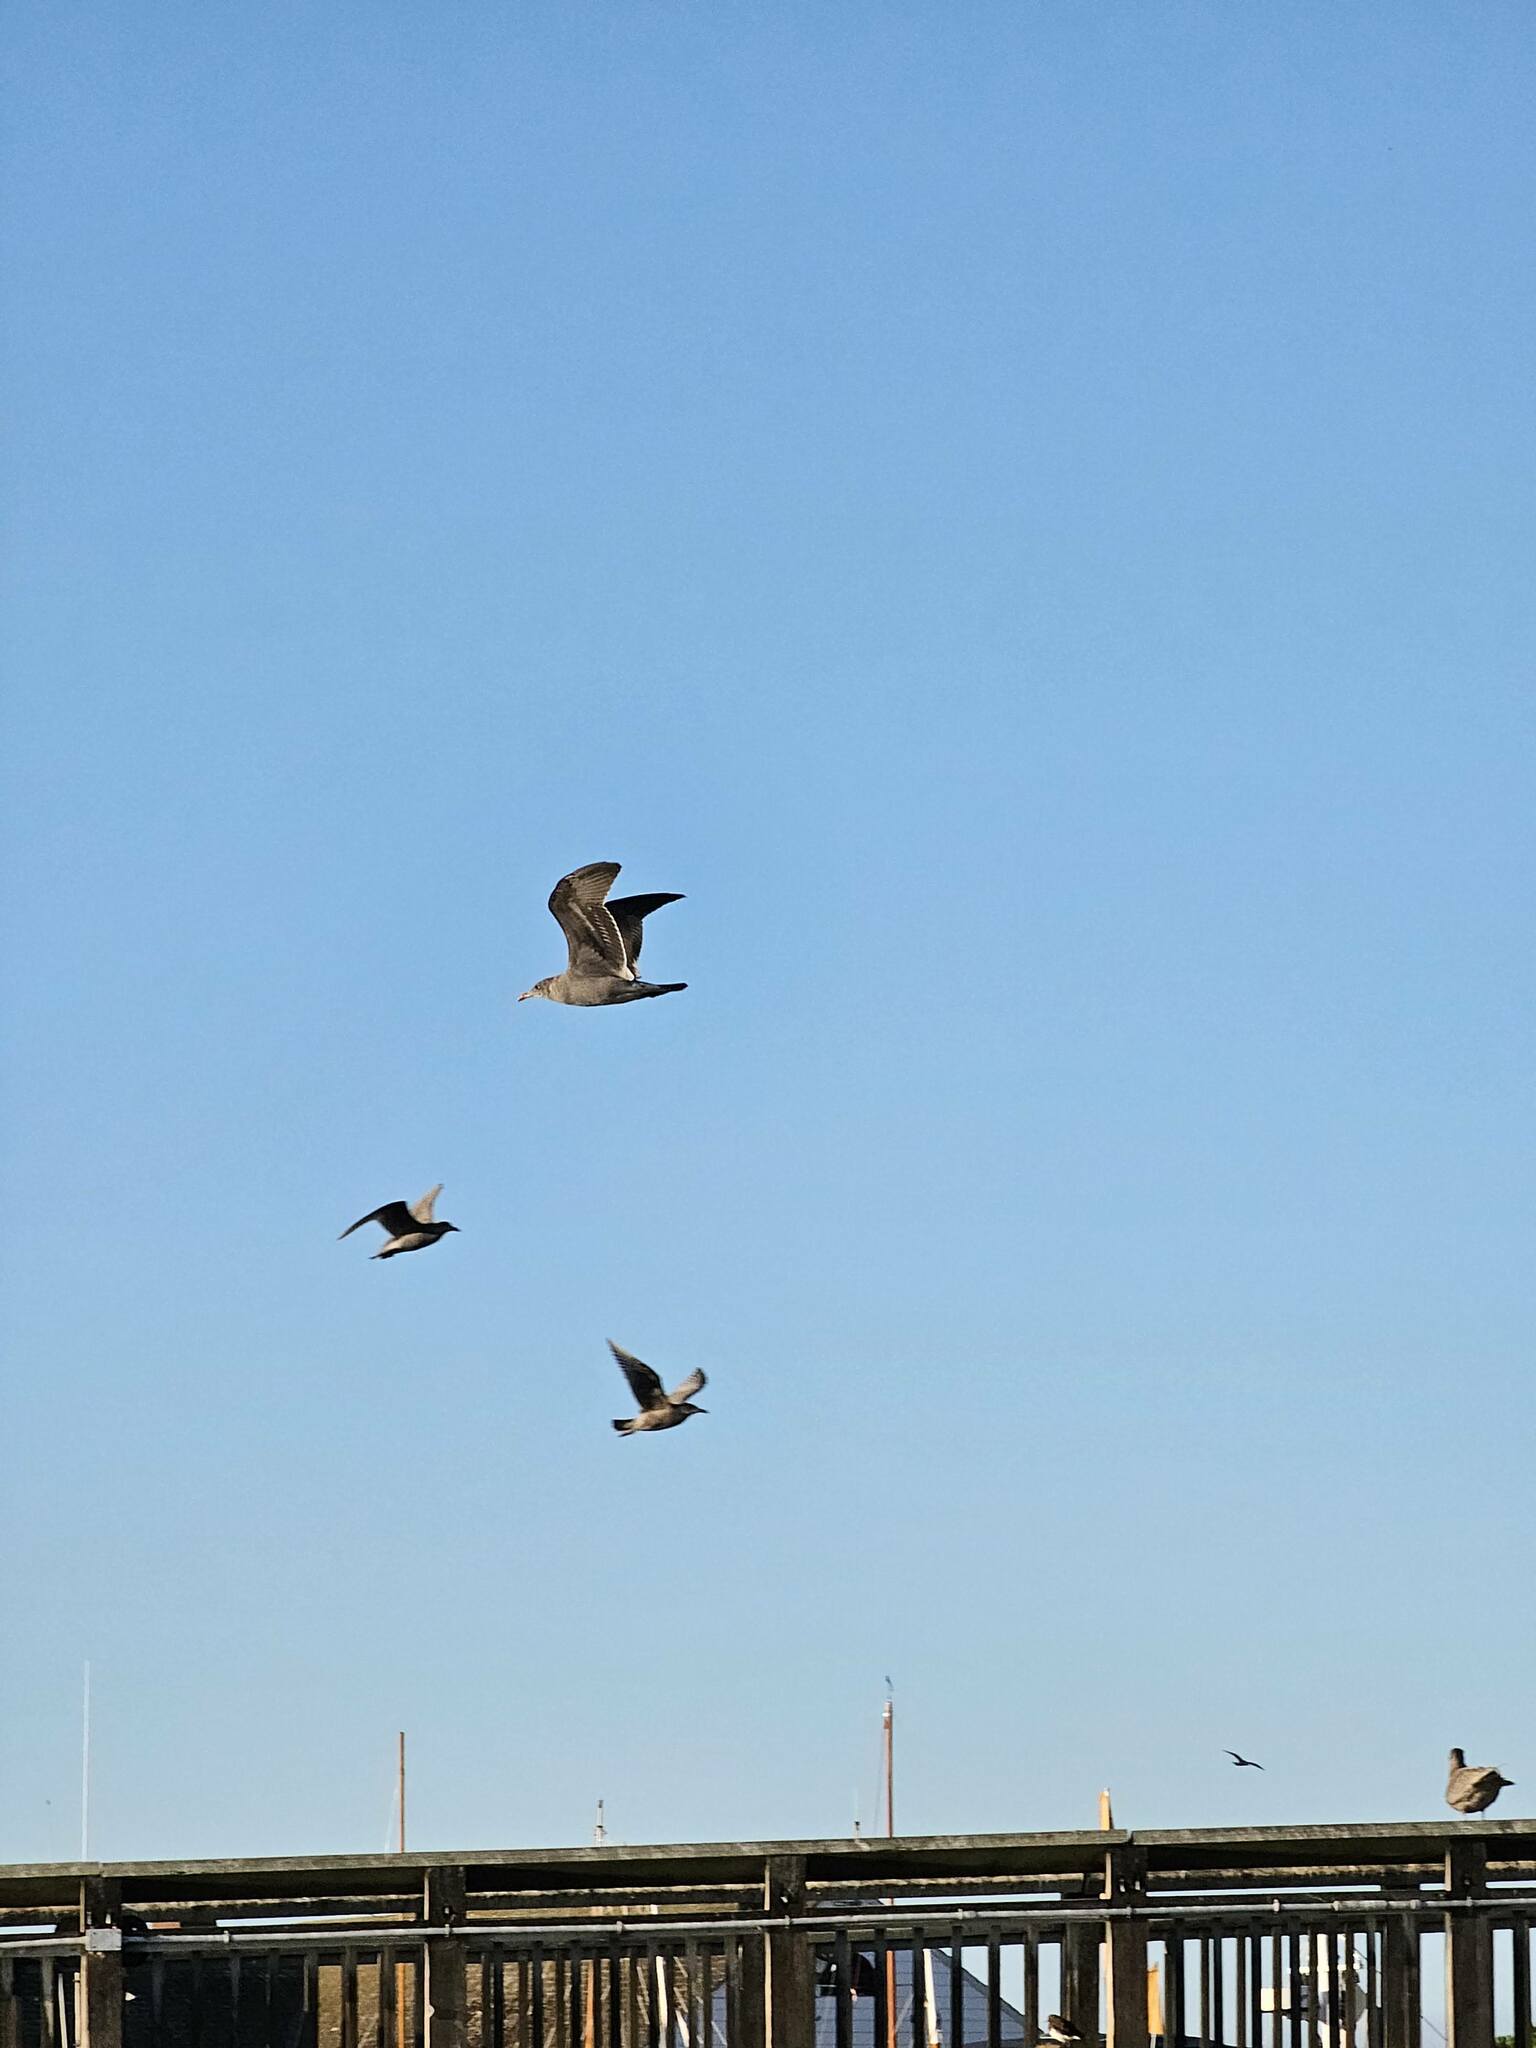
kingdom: Animalia
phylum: Chordata
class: Aves
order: Charadriiformes
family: Laridae
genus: Larus
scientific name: Larus heermanni
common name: Heermann's gull
